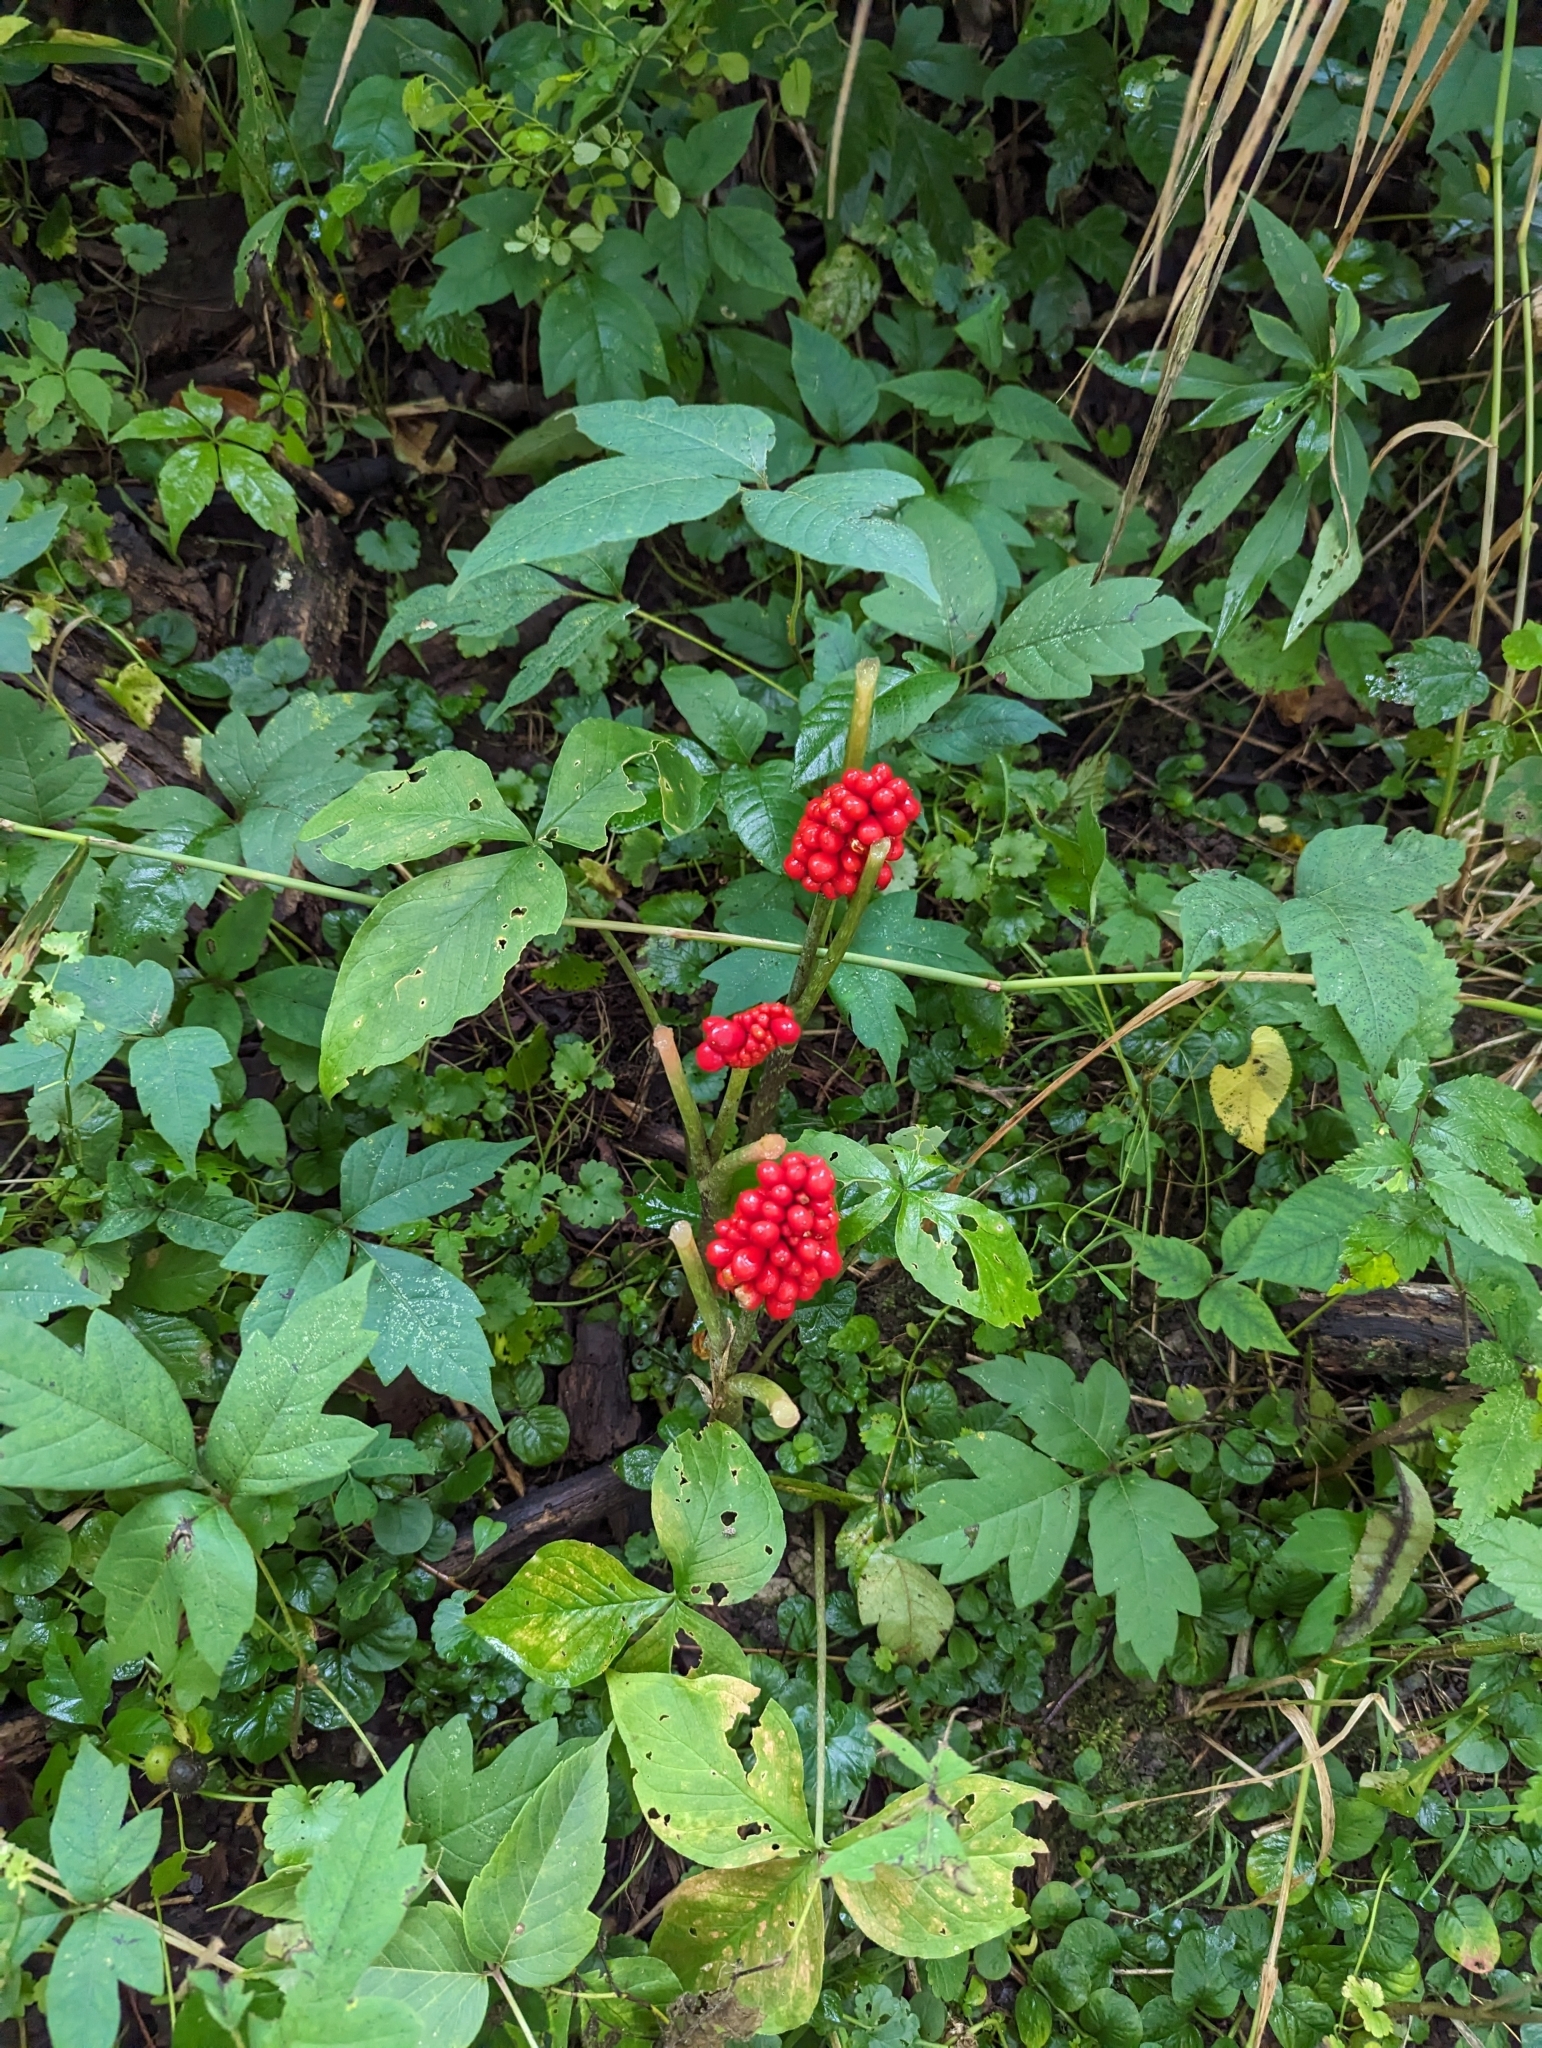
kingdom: Plantae
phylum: Tracheophyta
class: Liliopsida
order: Alismatales
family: Araceae
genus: Arisaema
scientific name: Arisaema triphyllum
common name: Jack-in-the-pulpit
